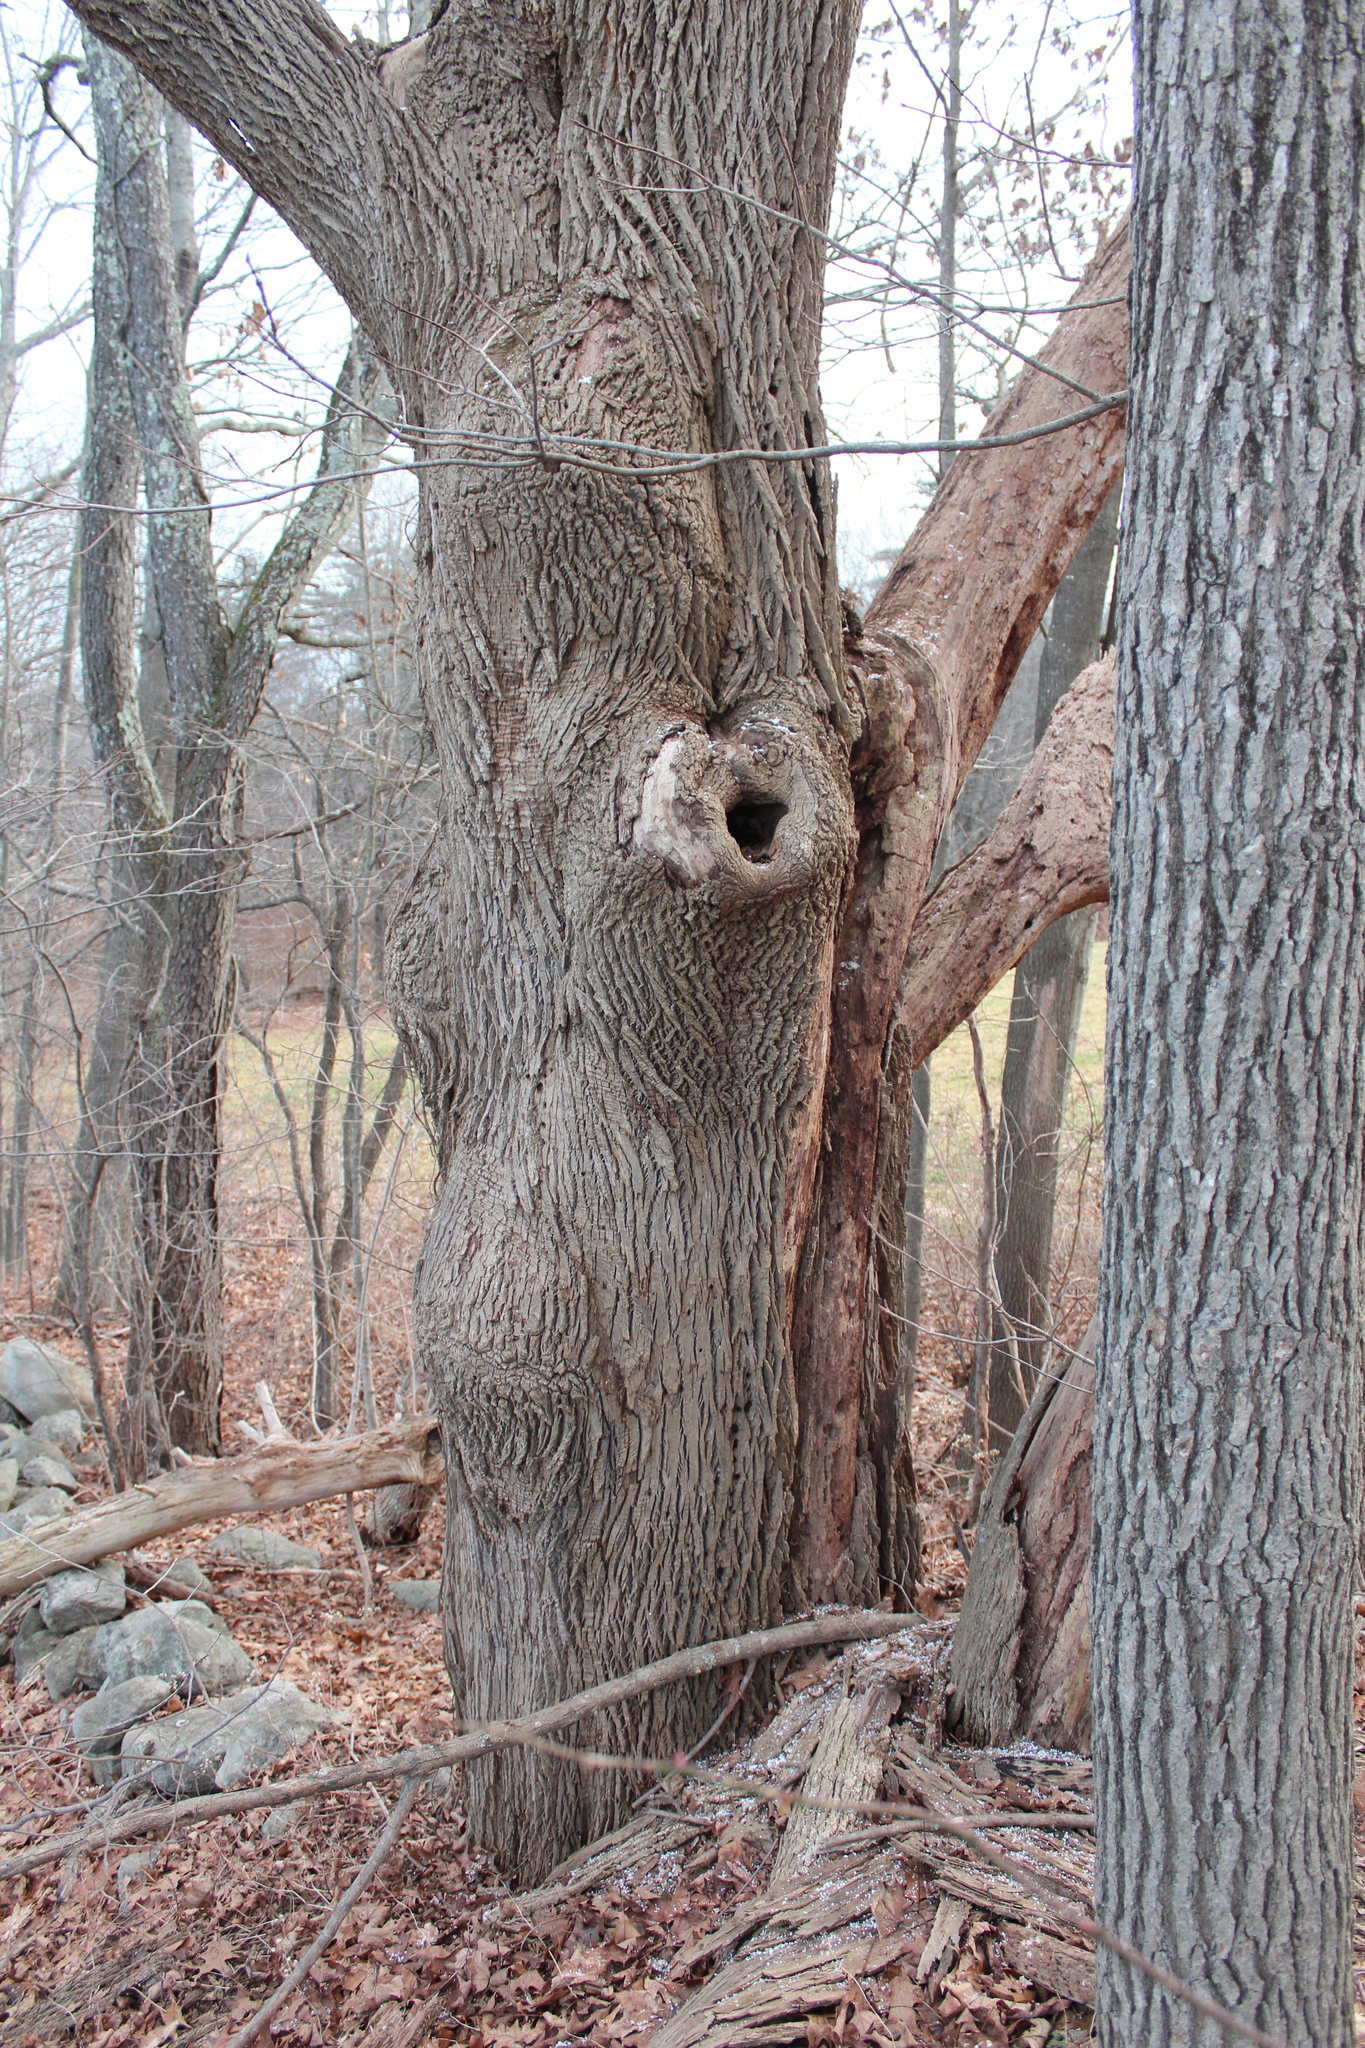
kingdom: Plantae
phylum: Tracheophyta
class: Magnoliopsida
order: Lamiales
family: Oleaceae
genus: Fraxinus
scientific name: Fraxinus americana
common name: White ash
